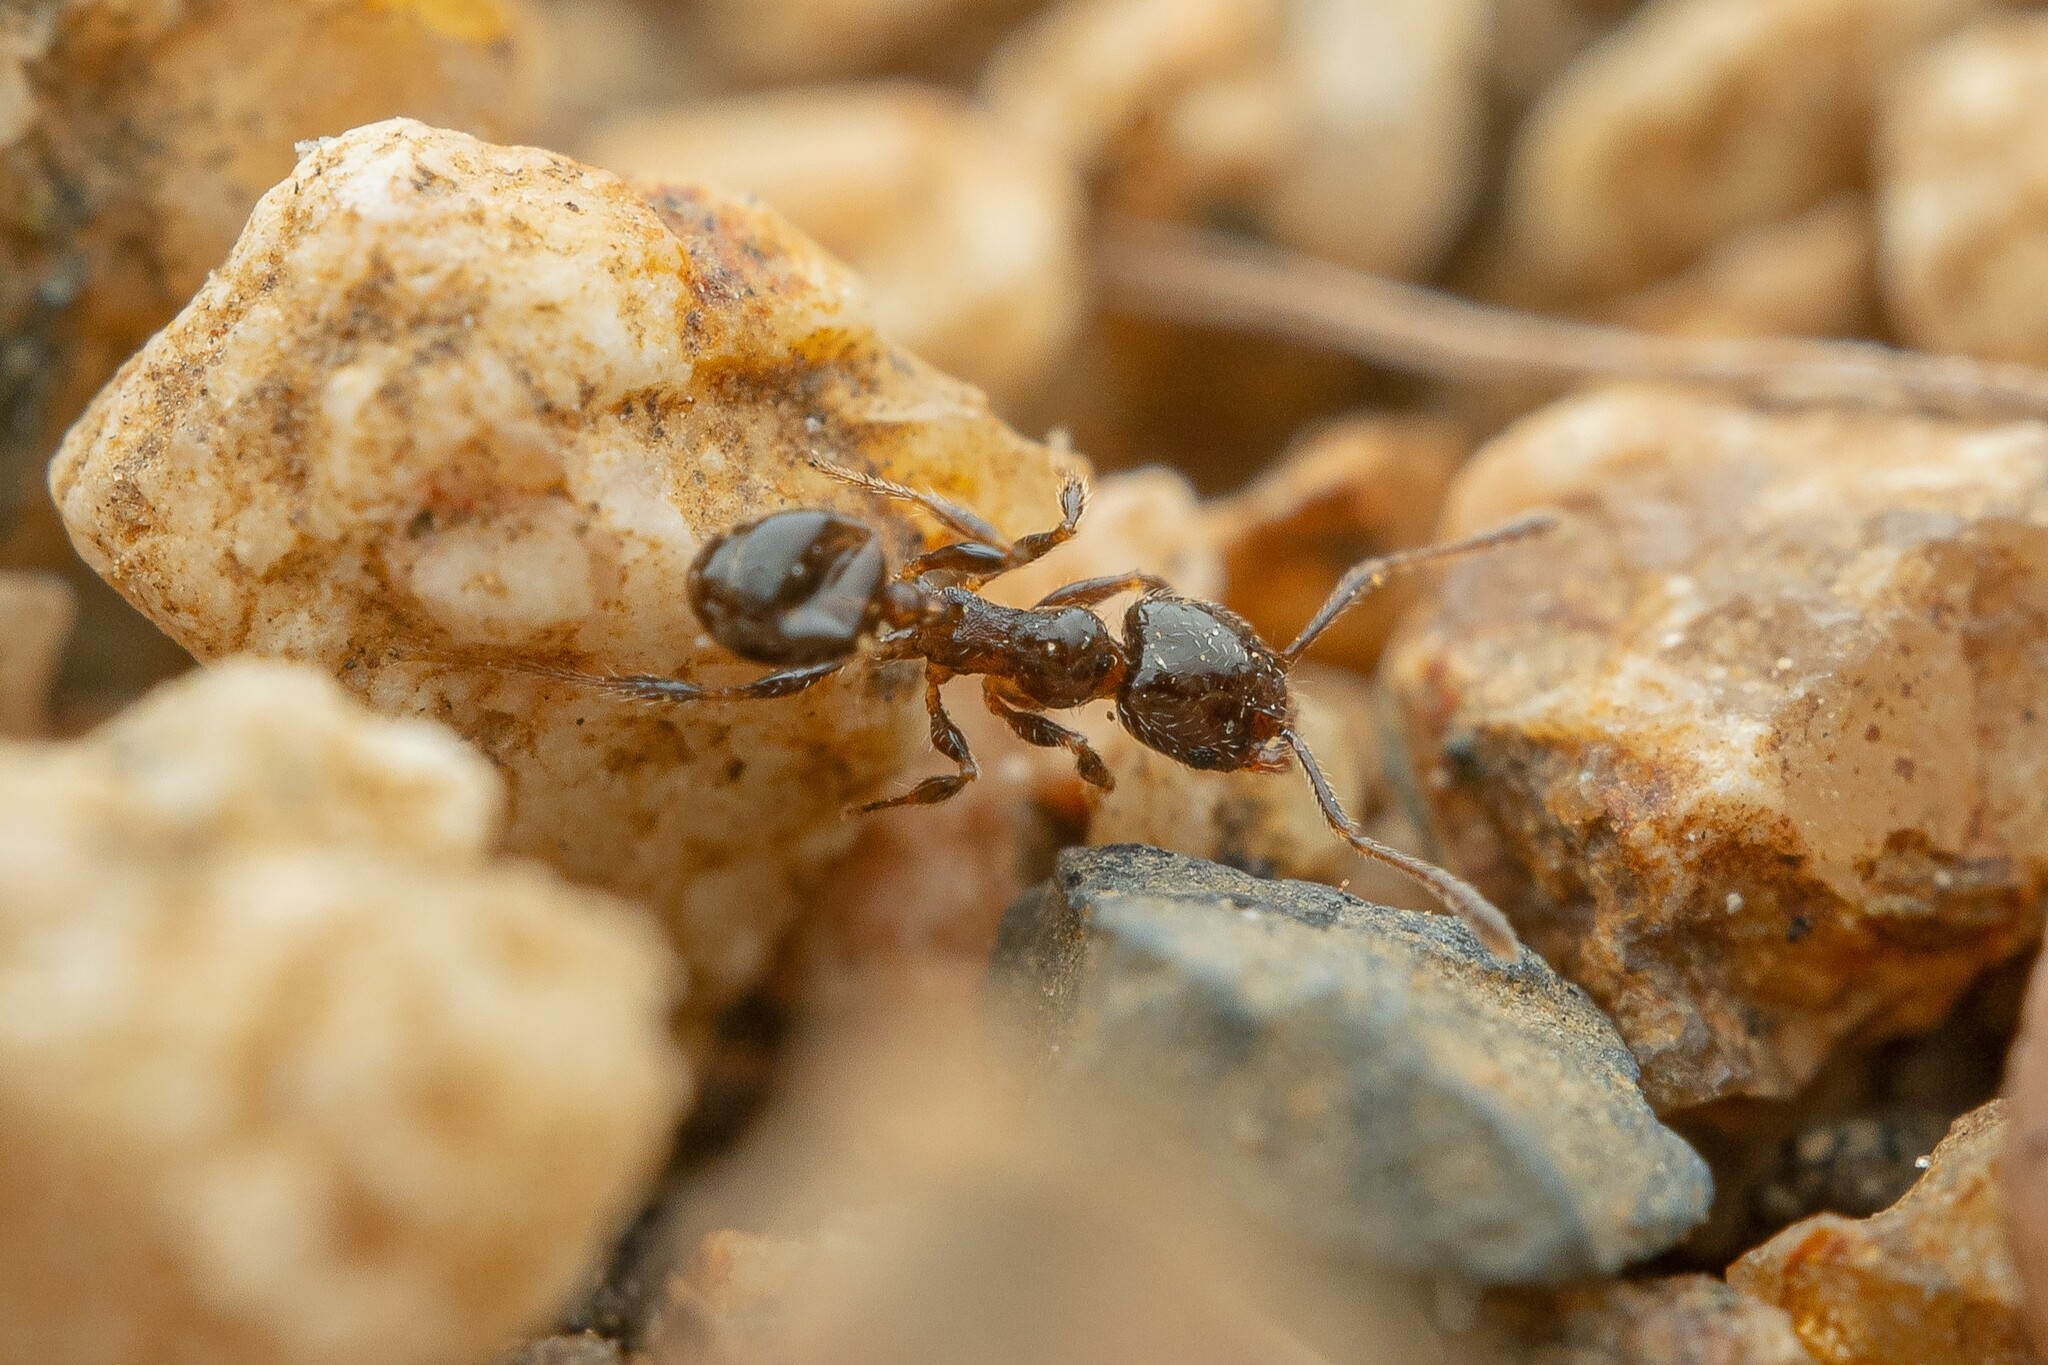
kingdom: Animalia
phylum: Arthropoda
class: Insecta
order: Hymenoptera
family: Formicidae
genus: Pheidole
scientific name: Pheidole bicarinata
